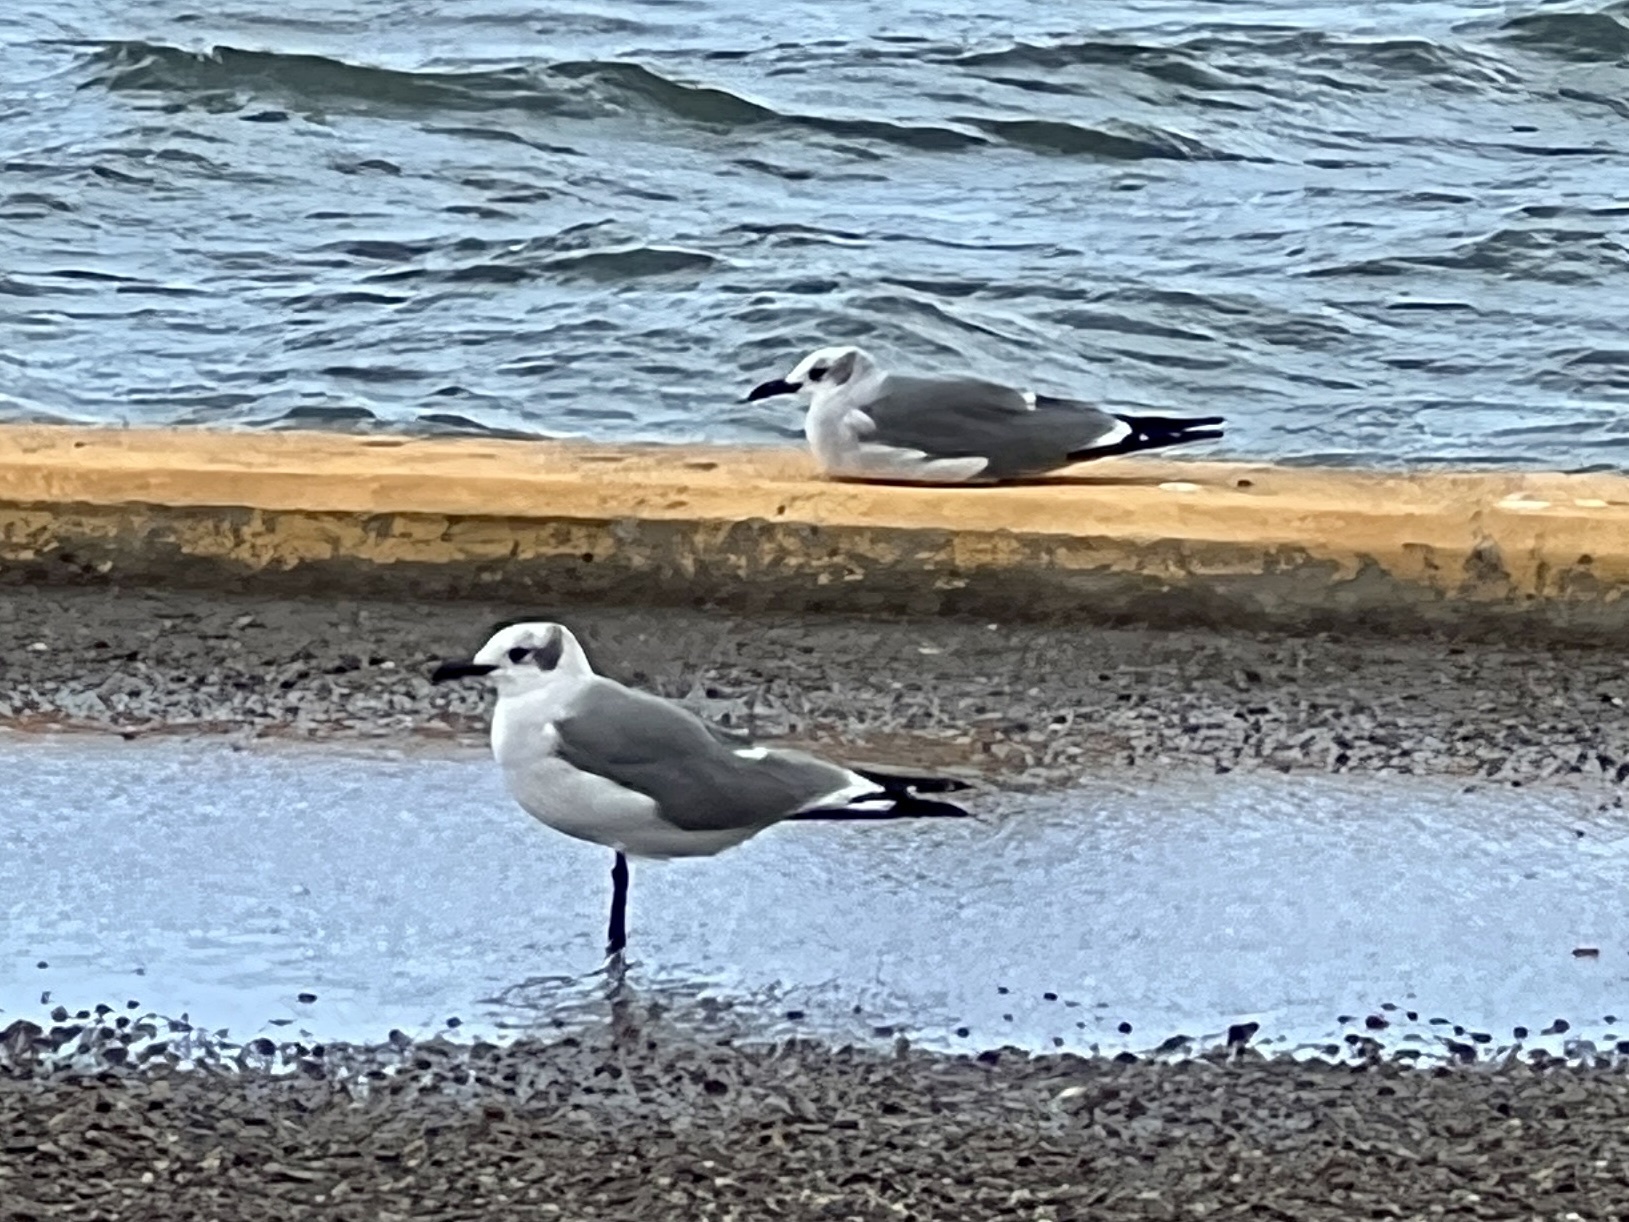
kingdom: Animalia
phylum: Chordata
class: Aves
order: Charadriiformes
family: Laridae
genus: Leucophaeus
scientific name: Leucophaeus atricilla
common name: Laughing gull
